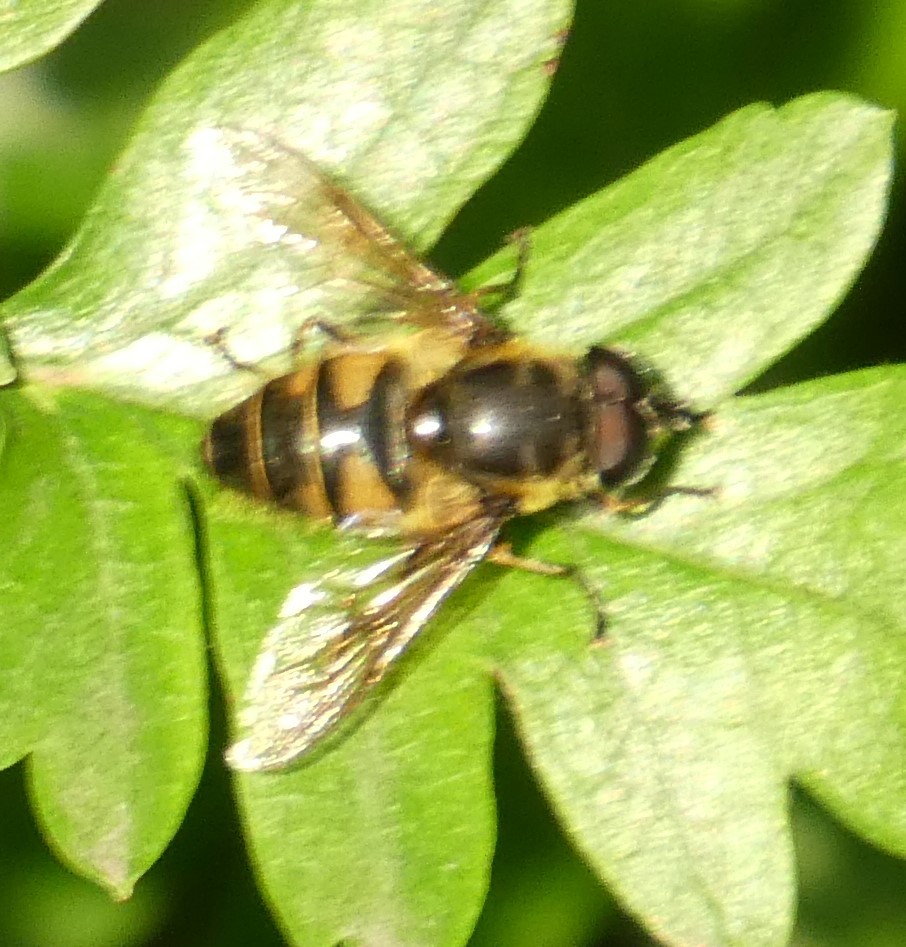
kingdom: Animalia
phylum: Arthropoda
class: Insecta
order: Diptera
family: Syrphidae
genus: Myathropa
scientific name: Myathropa florea
